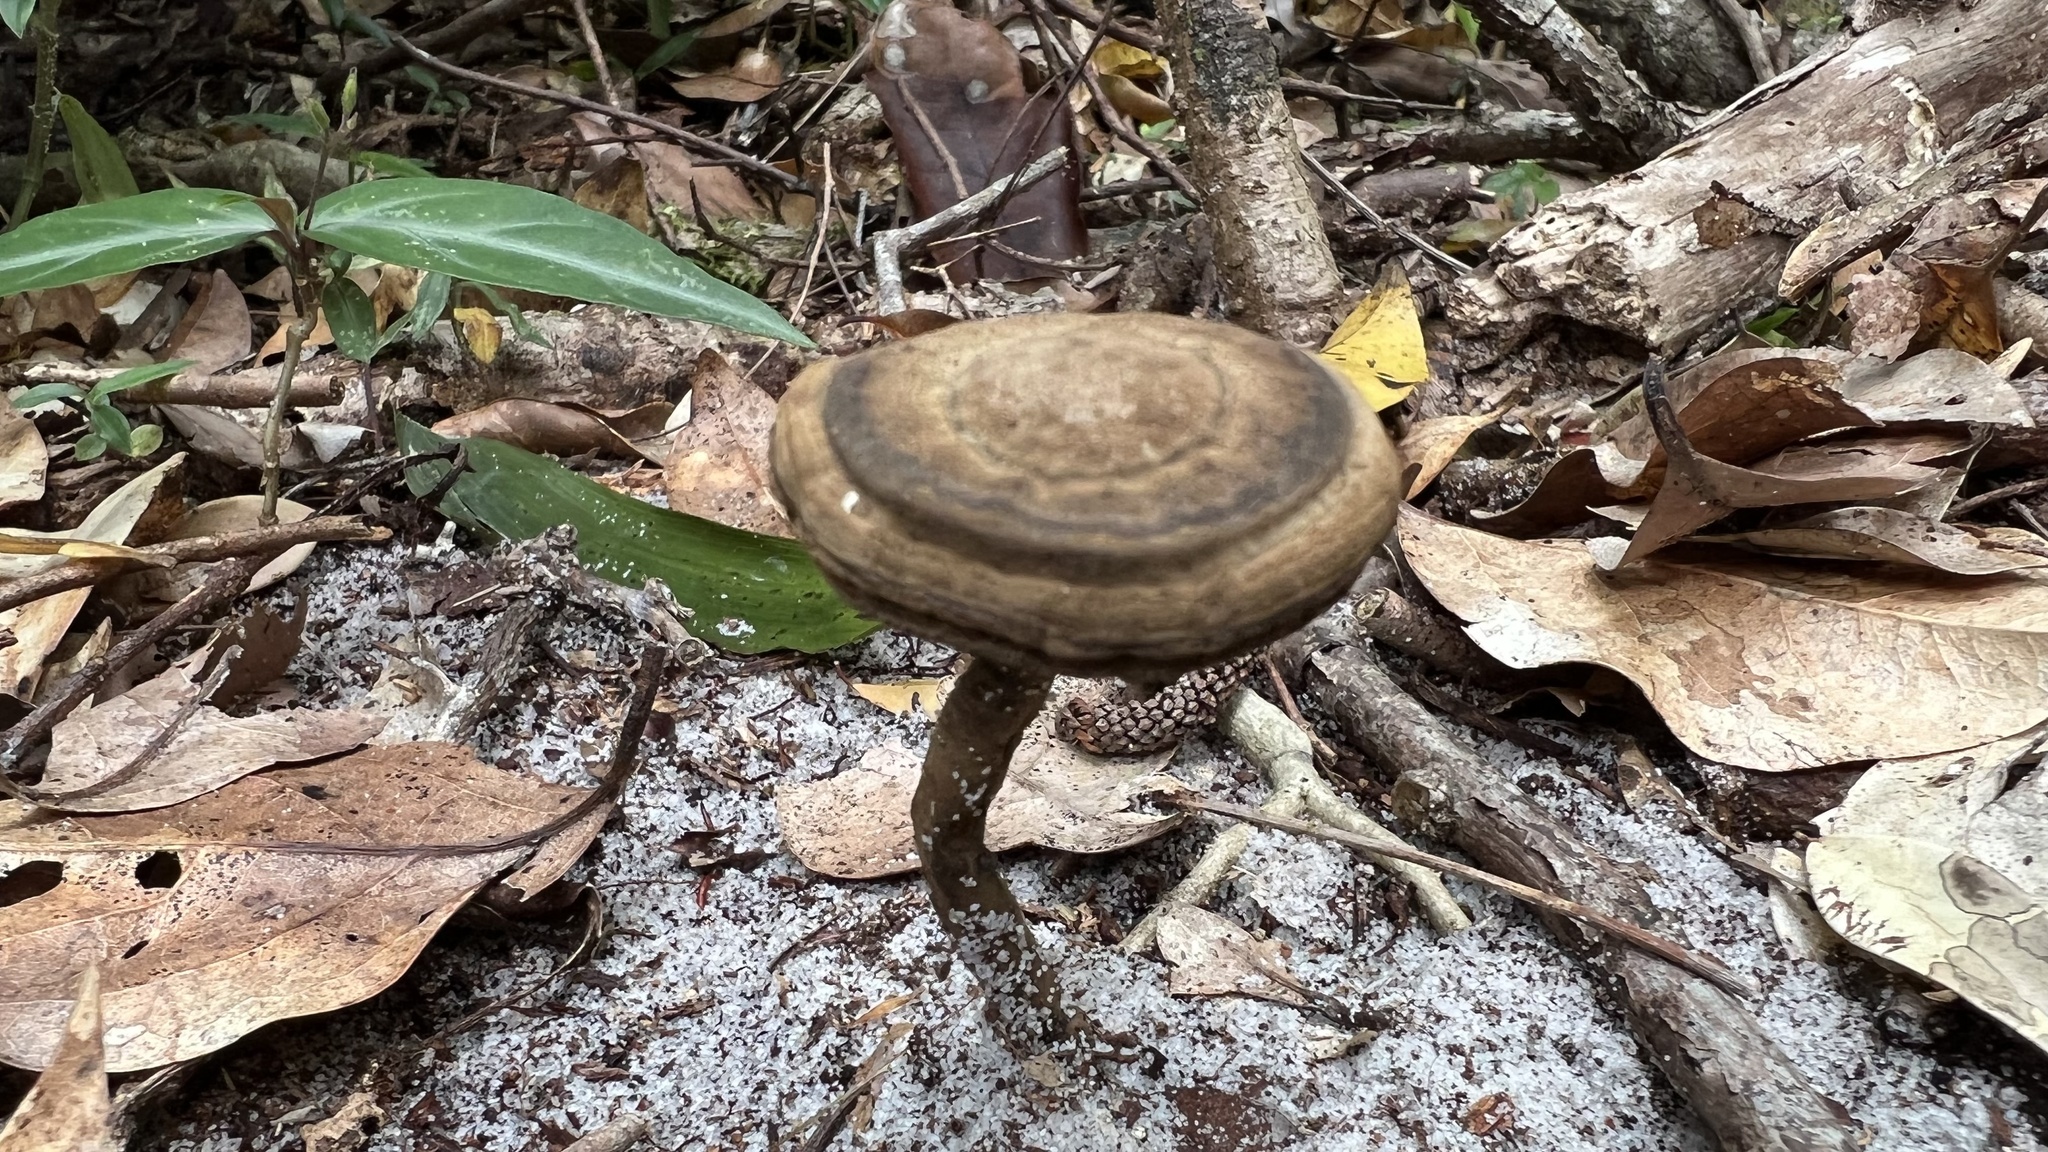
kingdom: Fungi
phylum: Basidiomycota
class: Agaricomycetes
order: Polyporales
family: Ganodermataceae
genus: Sanguinoderma
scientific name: Sanguinoderma rude
